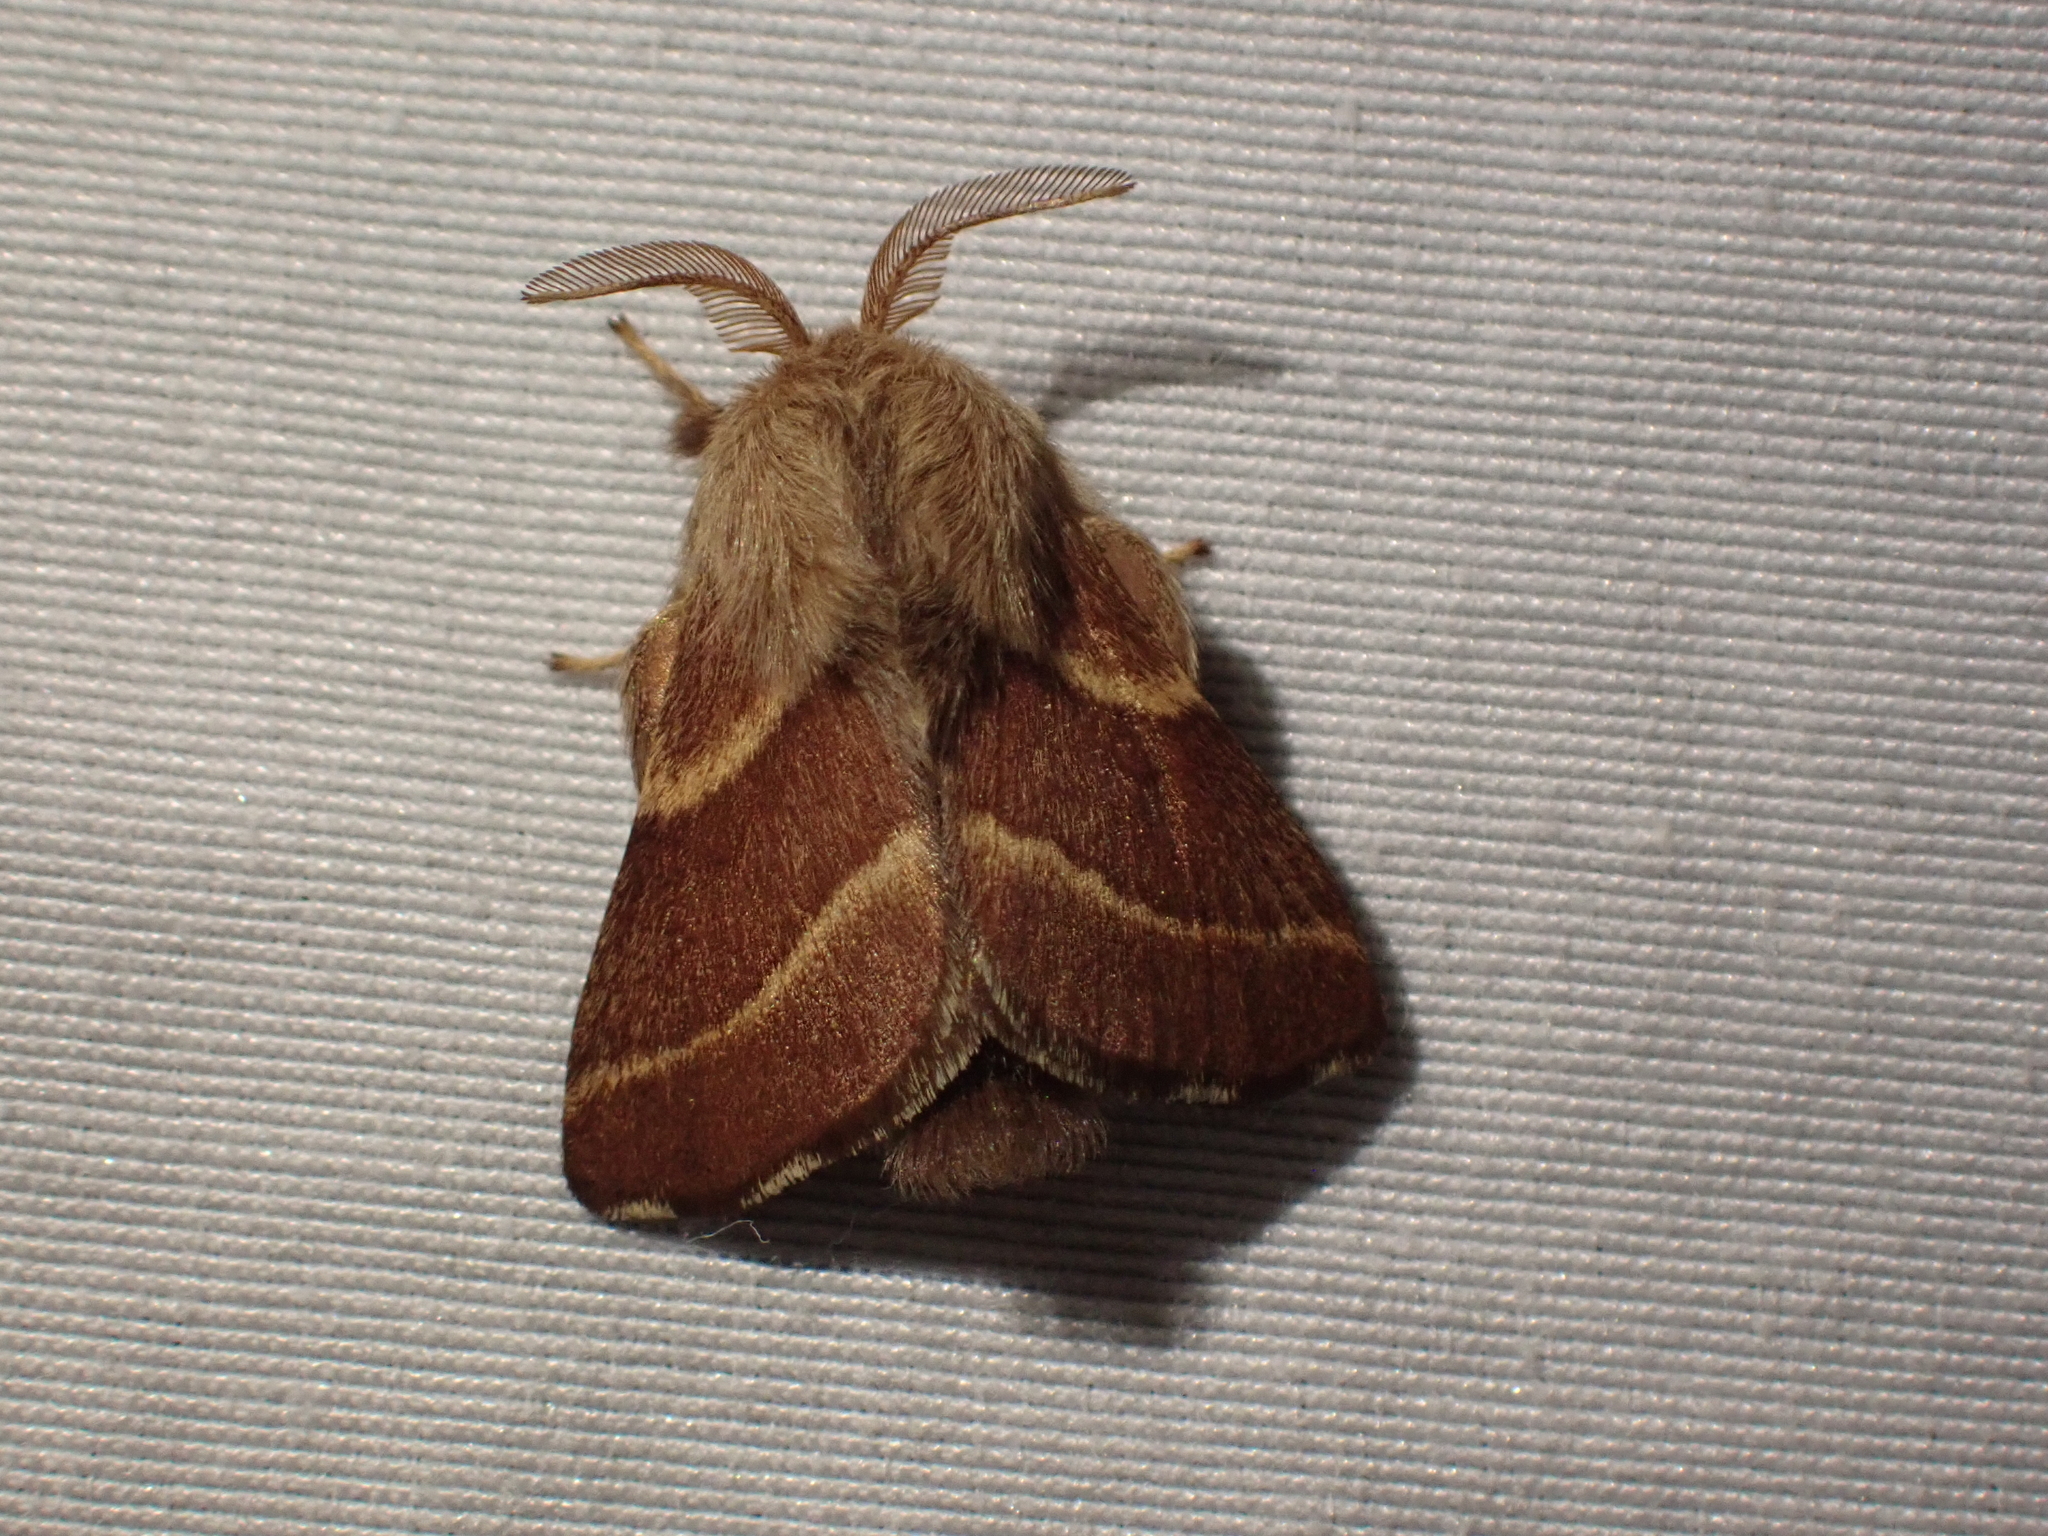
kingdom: Animalia
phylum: Arthropoda
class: Insecta
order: Lepidoptera
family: Lasiocampidae
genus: Malacosoma
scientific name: Malacosoma californica
